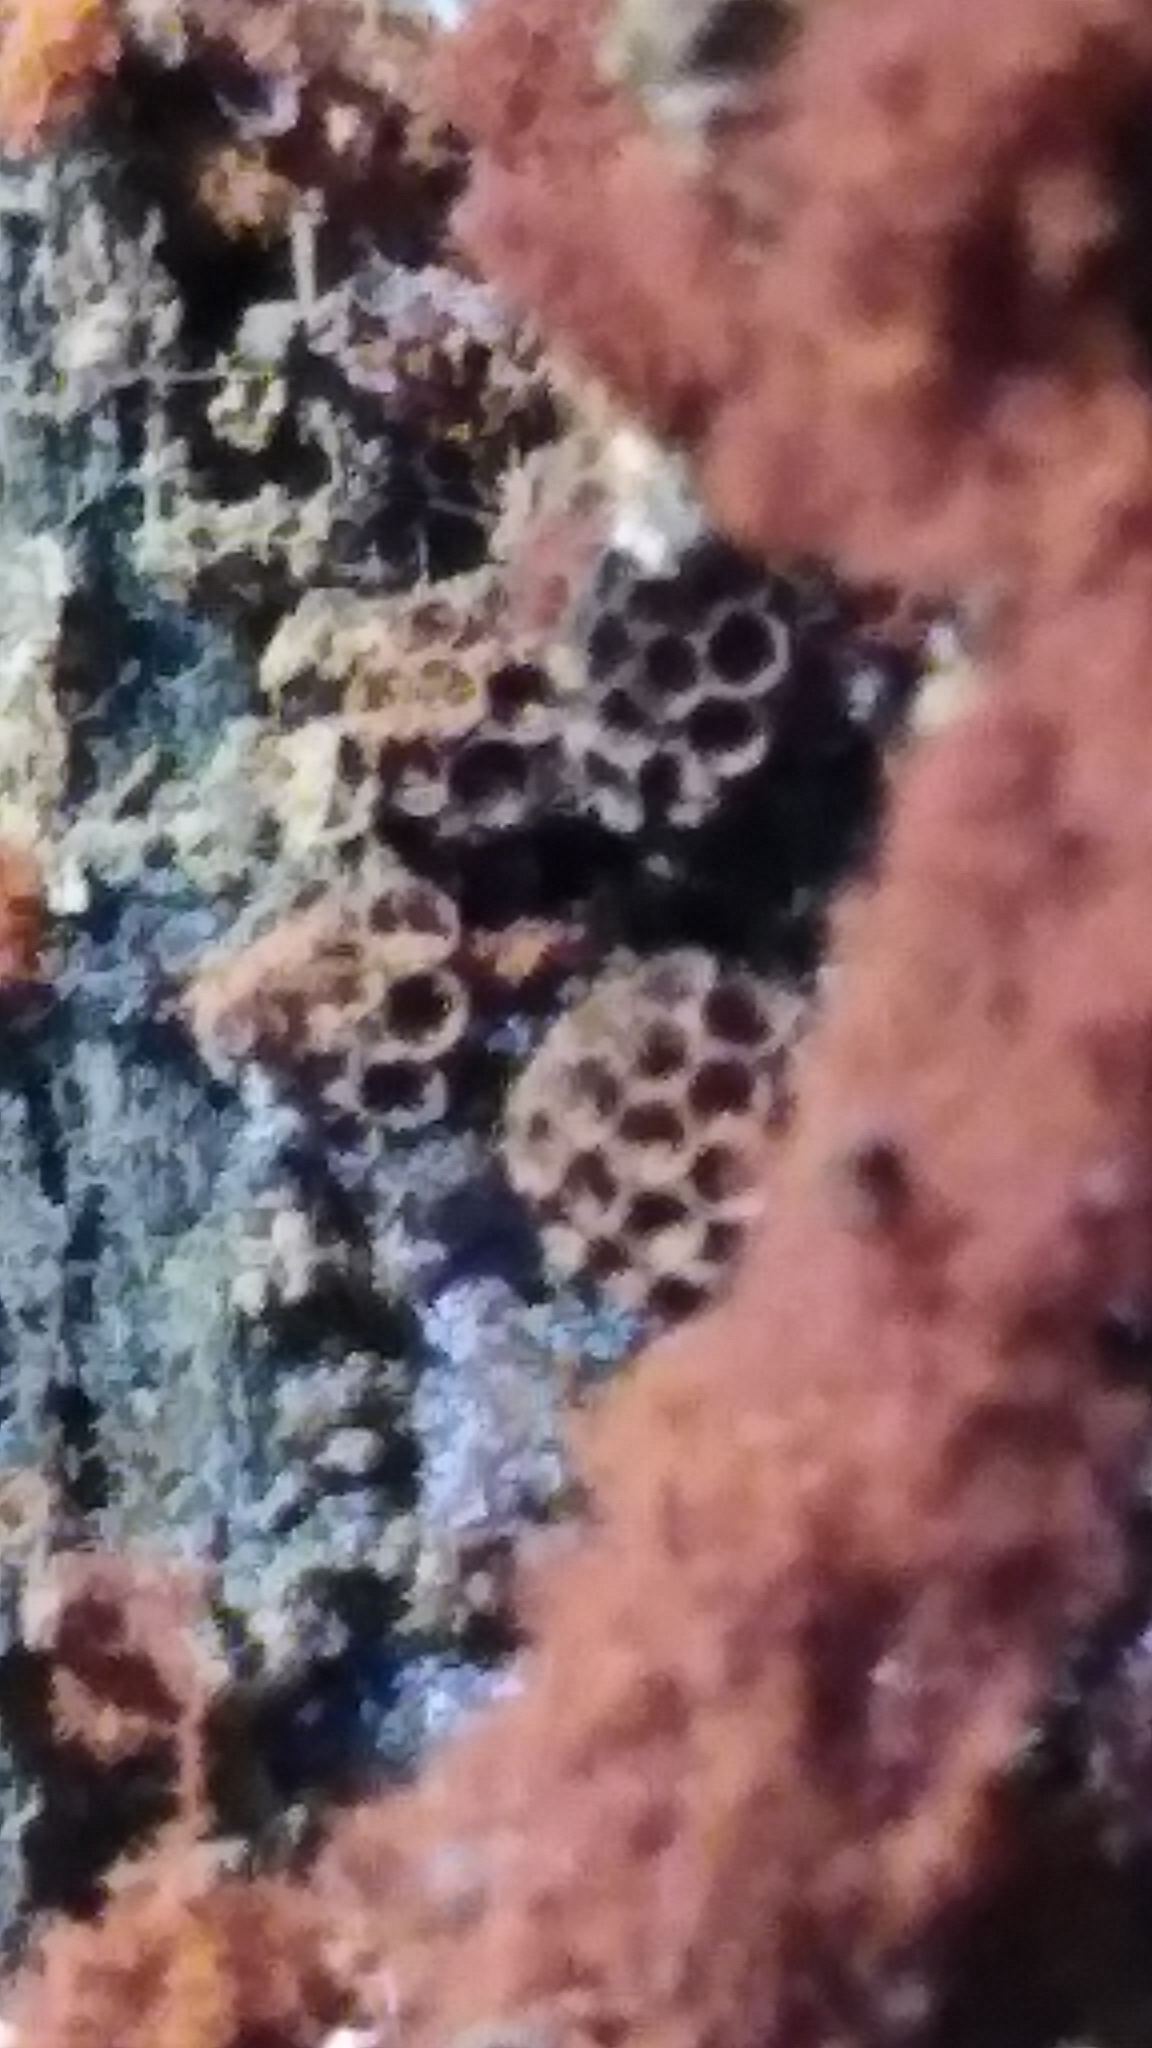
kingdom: Protozoa
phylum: Mycetozoa
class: Myxomycetes
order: Trichiales
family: Trichiaceae
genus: Metatrichia
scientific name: Metatrichia vesparia
